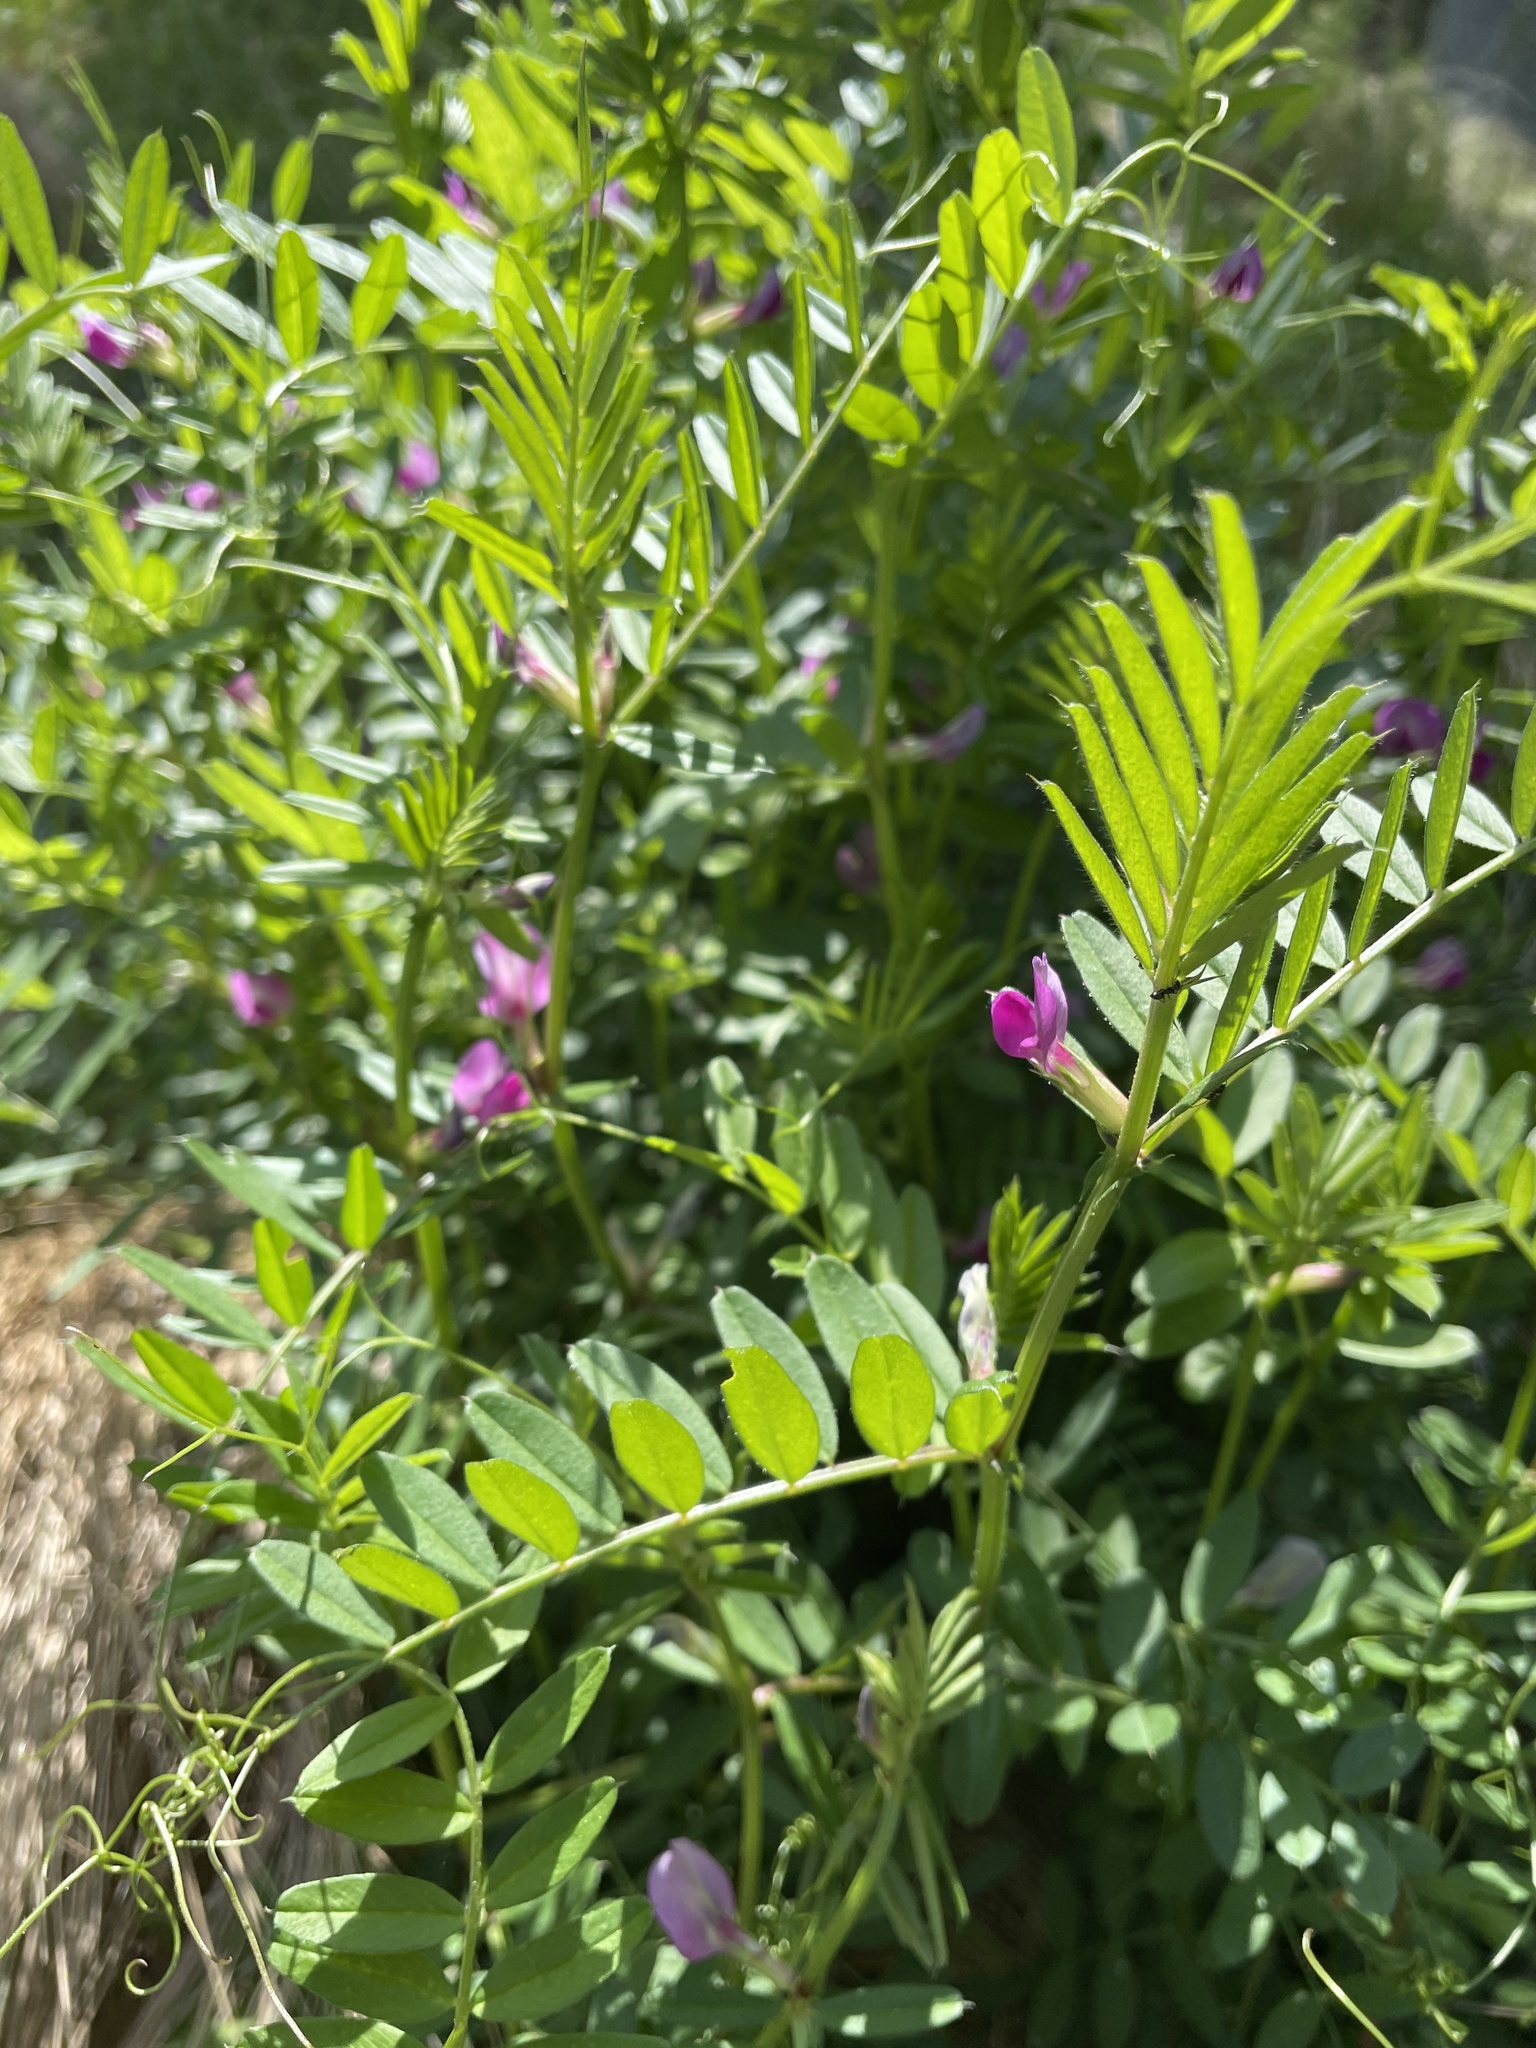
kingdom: Plantae
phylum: Tracheophyta
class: Magnoliopsida
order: Fabales
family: Fabaceae
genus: Vicia
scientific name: Vicia sativa
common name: Garden vetch
